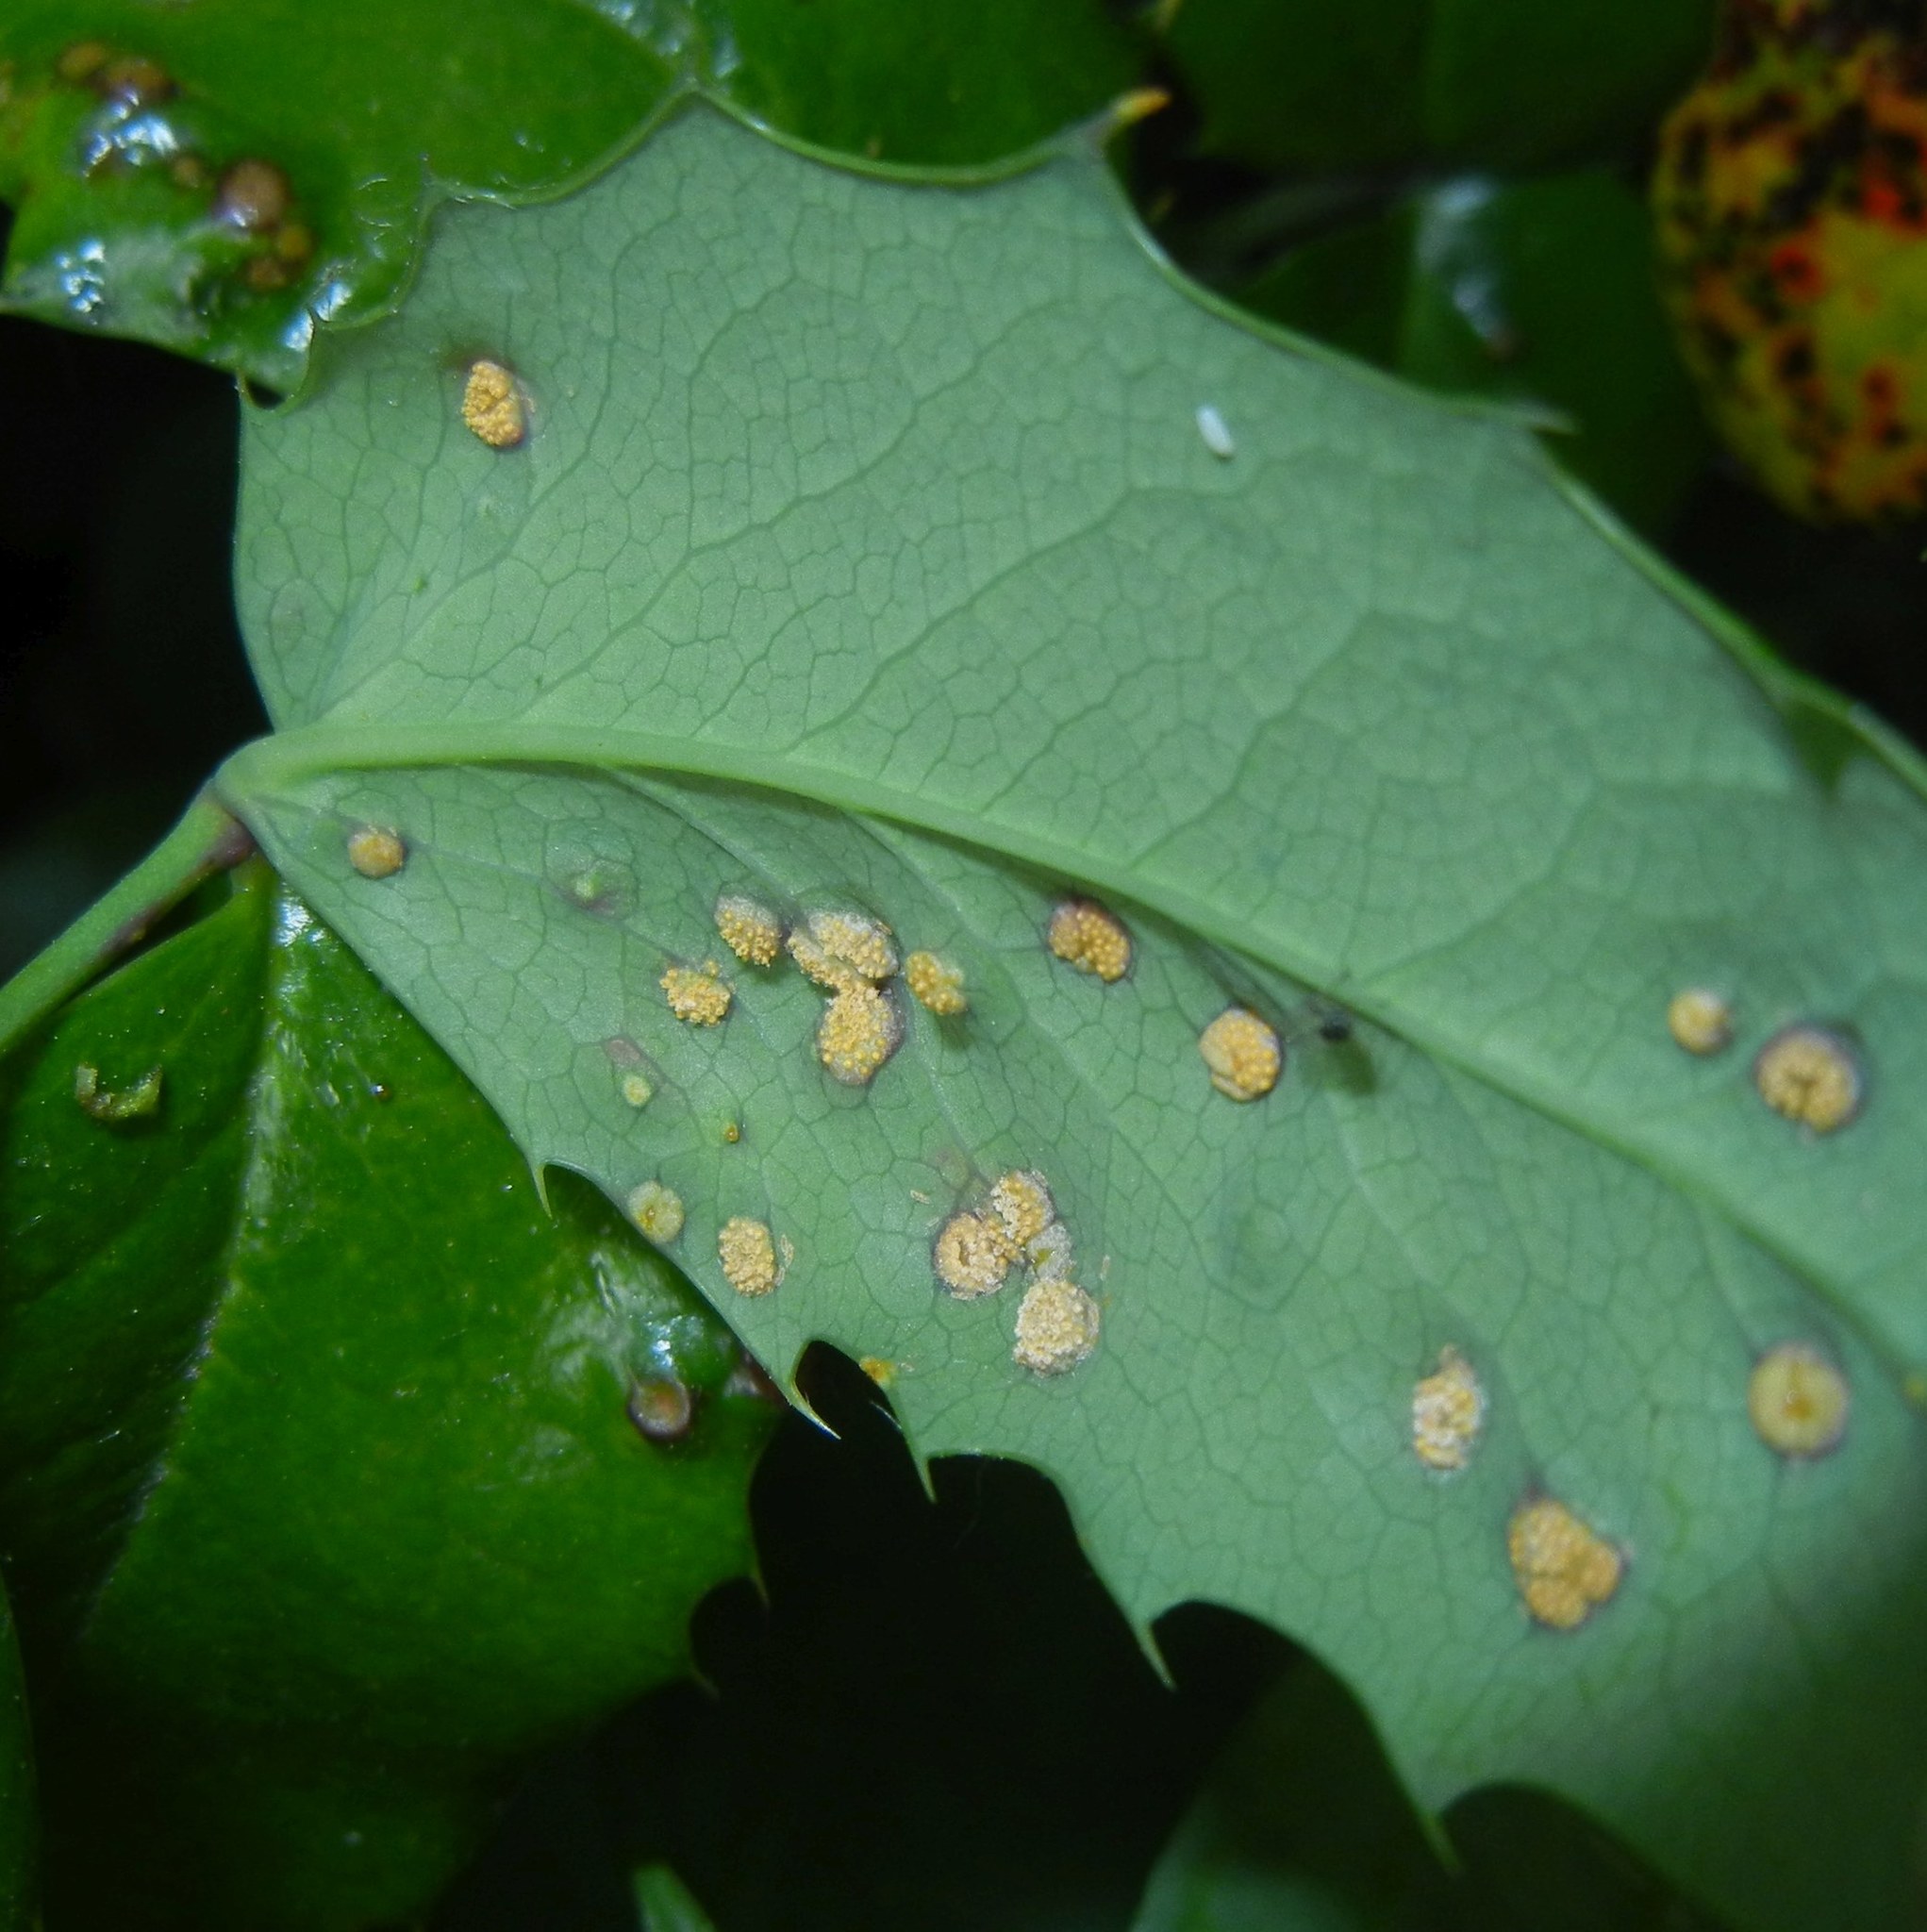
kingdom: Fungi
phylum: Basidiomycota
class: Pucciniomycetes
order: Pucciniales
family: Pucciniaceae
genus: Cumminsiella
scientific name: Cumminsiella mirabilissima
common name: Mahonia rust
